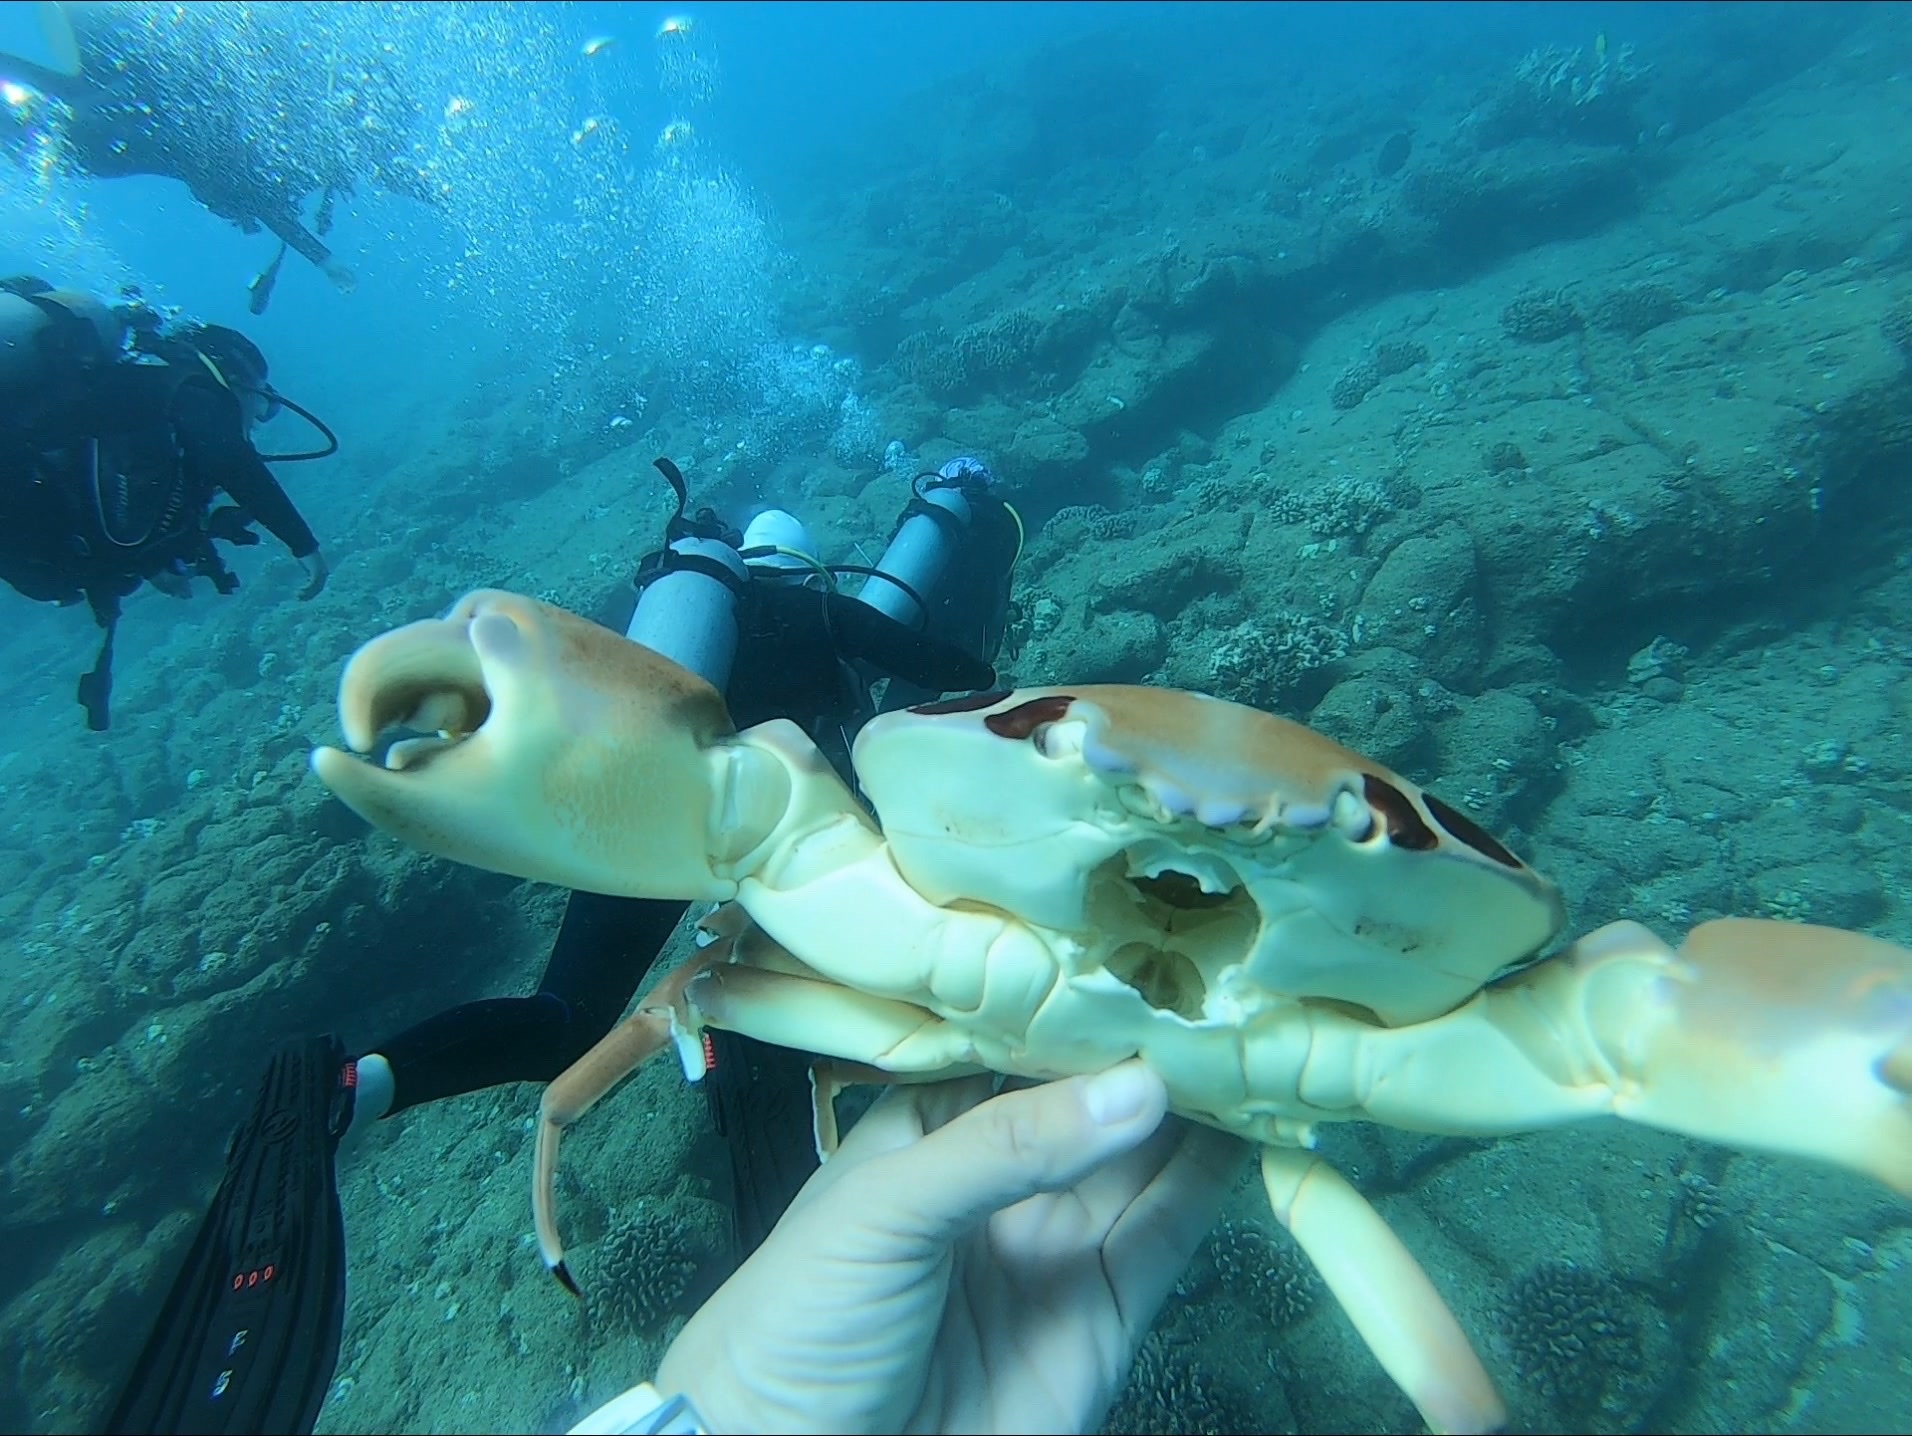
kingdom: Animalia
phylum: Arthropoda
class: Malacostraca
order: Decapoda
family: Carpiliidae
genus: Carpilius
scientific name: Carpilius maculatus
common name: Spotted reef crab
